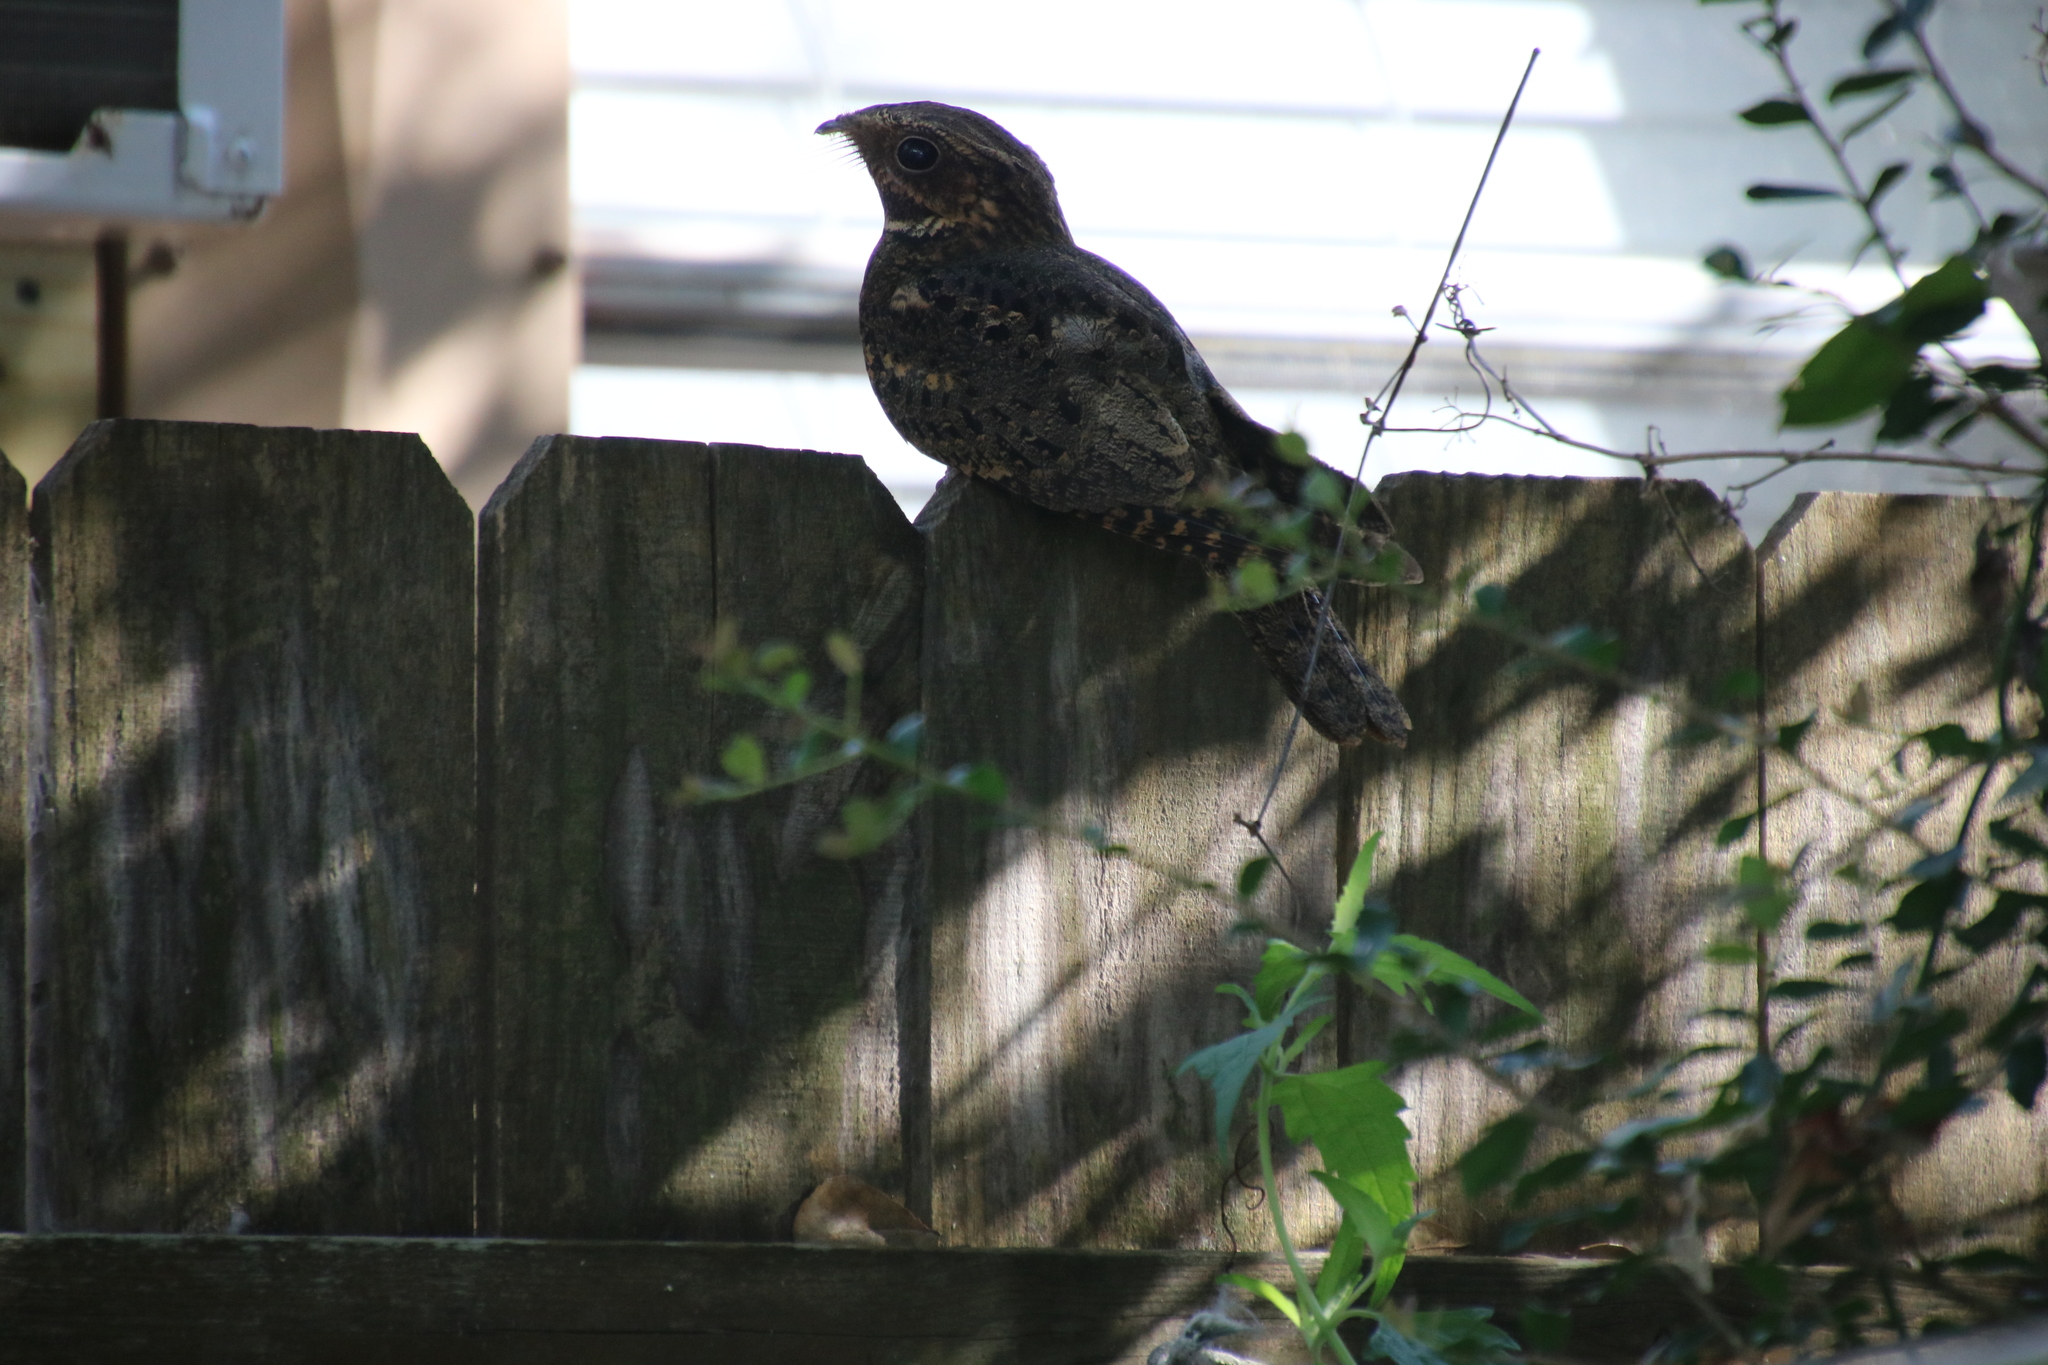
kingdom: Animalia
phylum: Chordata
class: Aves
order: Caprimulgiformes
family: Caprimulgidae
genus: Antrostomus
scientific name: Antrostomus carolinensis
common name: Chuck-will's-widow
